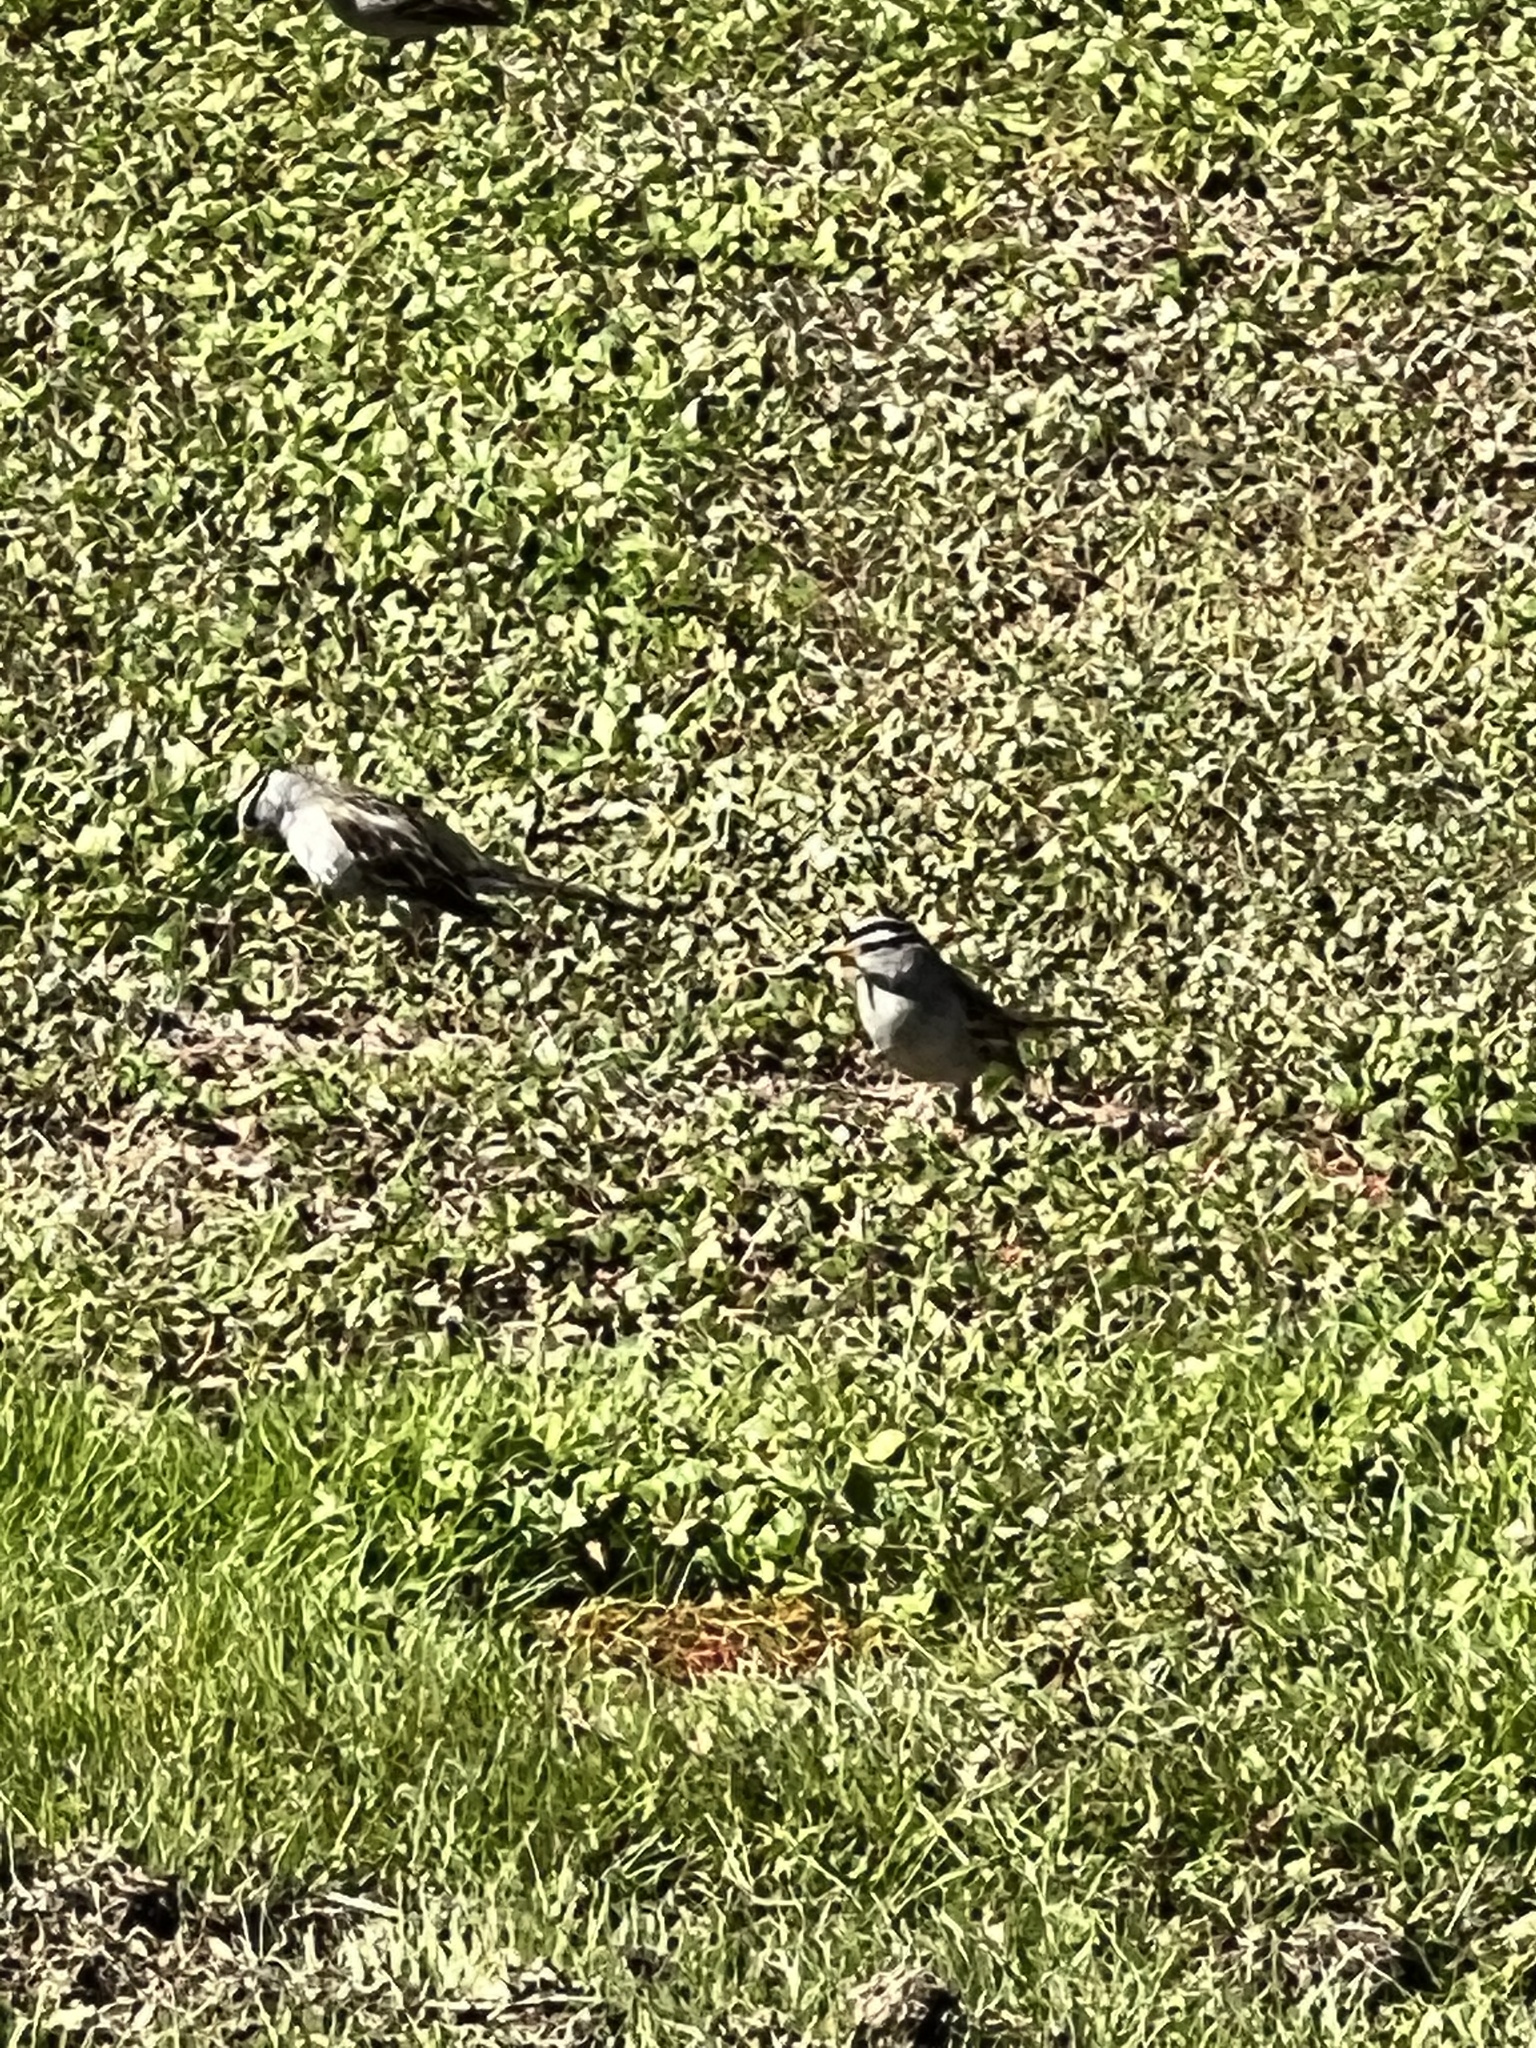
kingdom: Animalia
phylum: Chordata
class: Aves
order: Passeriformes
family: Passerellidae
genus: Zonotrichia
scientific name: Zonotrichia leucophrys
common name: White-crowned sparrow
